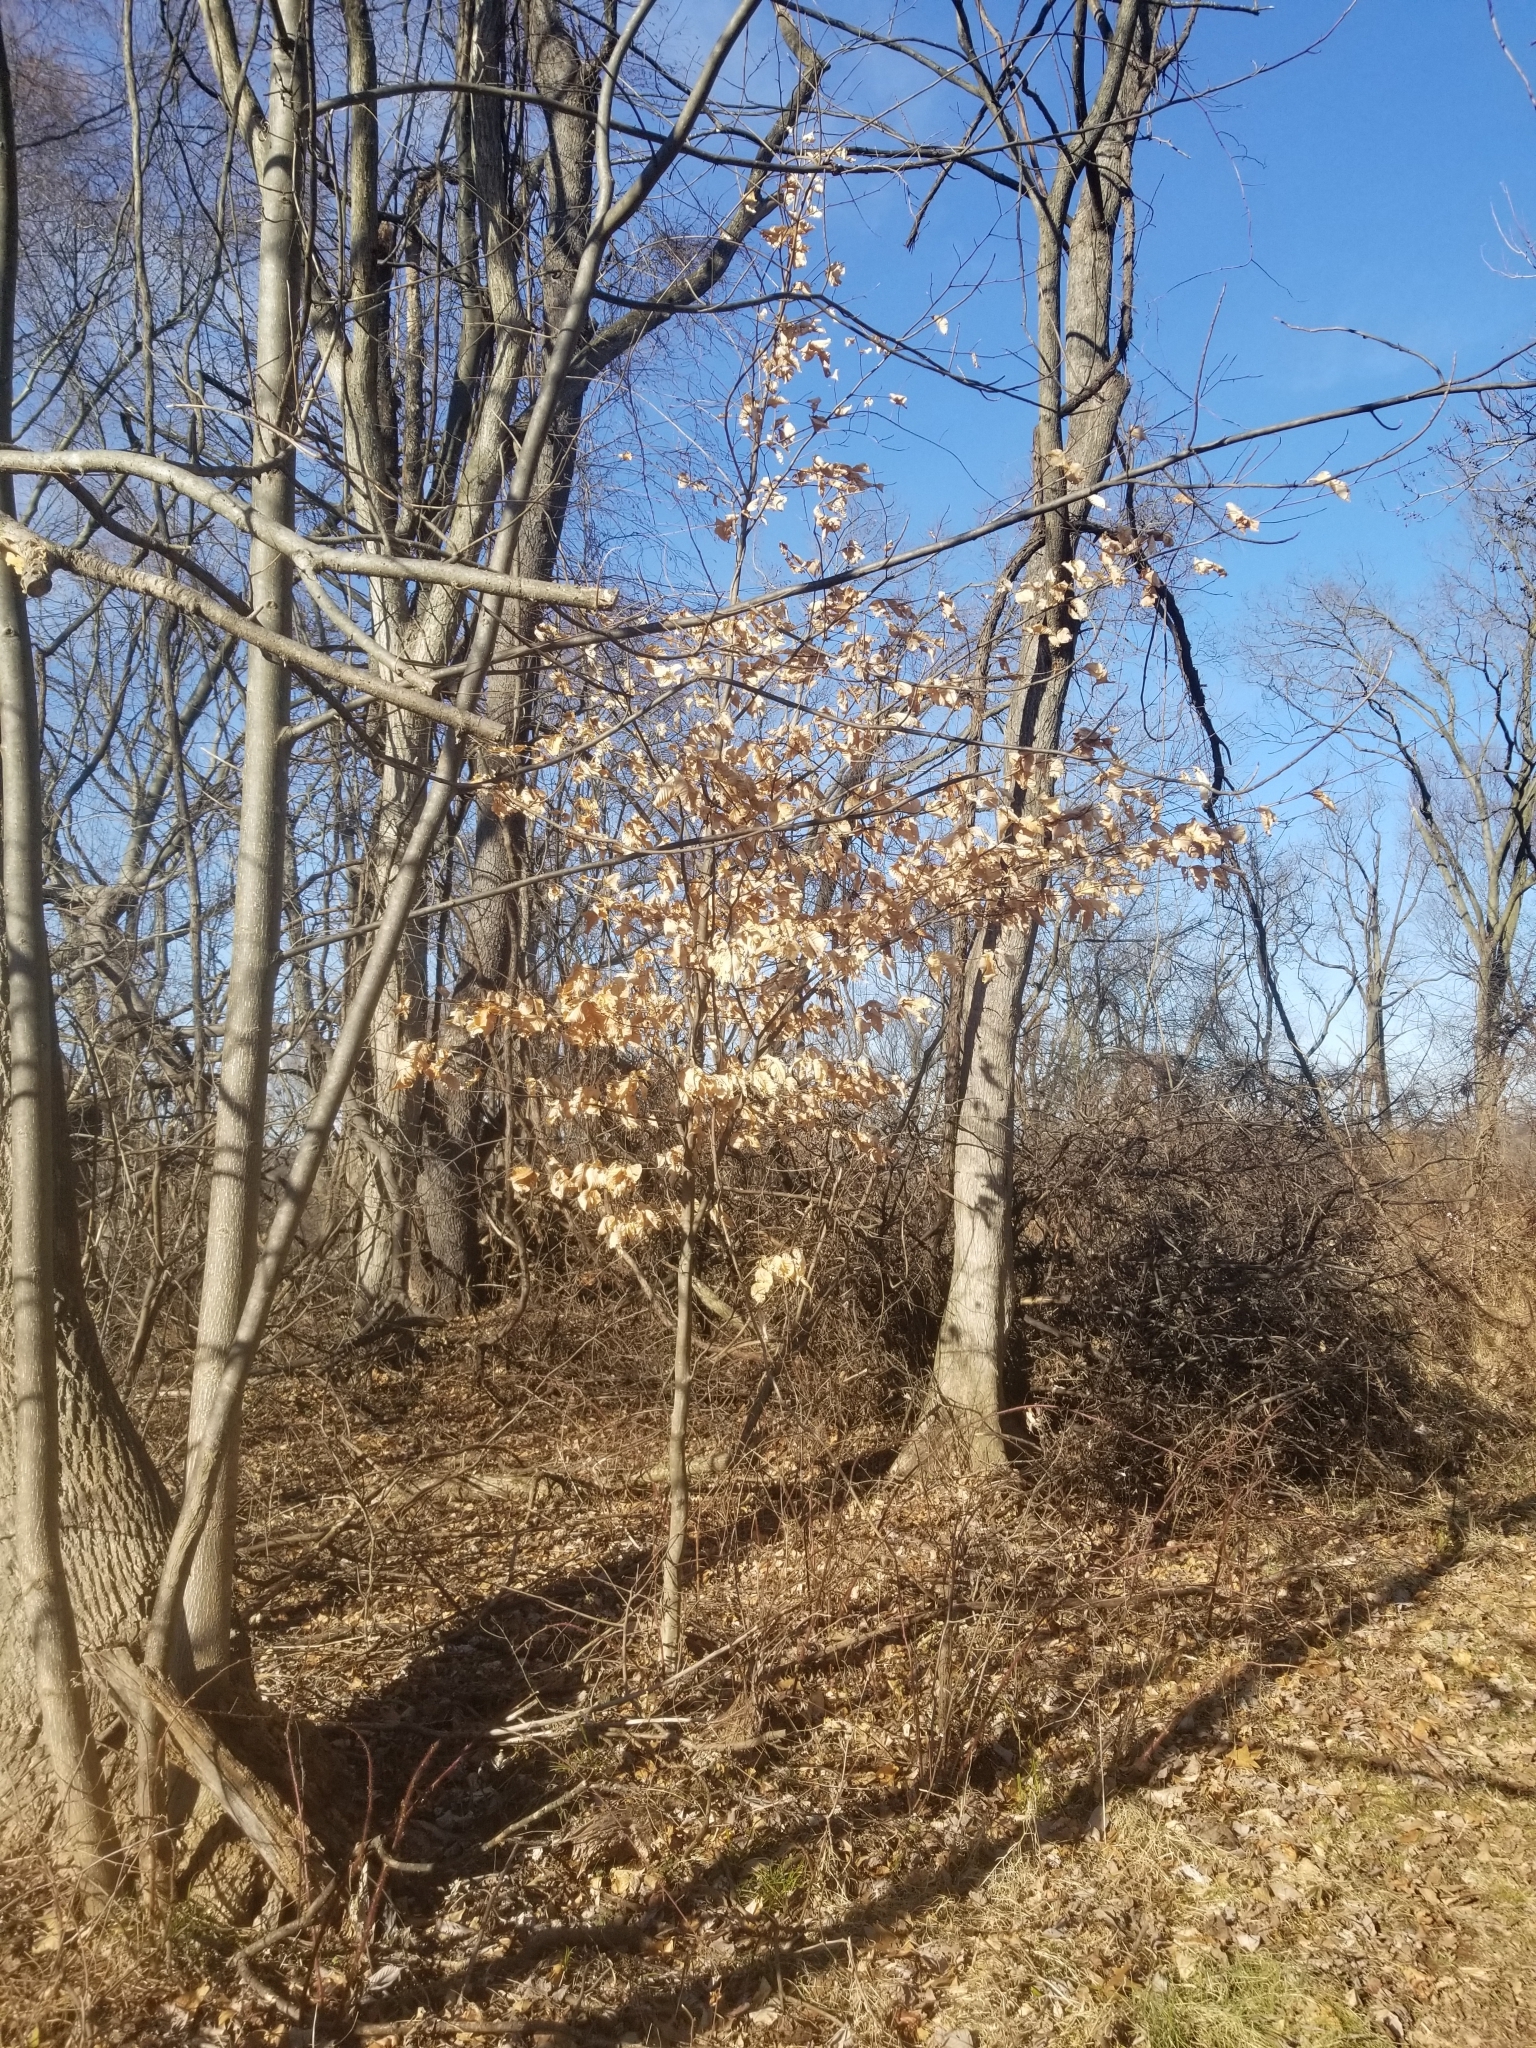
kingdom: Plantae
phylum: Tracheophyta
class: Magnoliopsida
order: Fagales
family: Fagaceae
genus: Fagus
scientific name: Fagus grandifolia
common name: American beech
